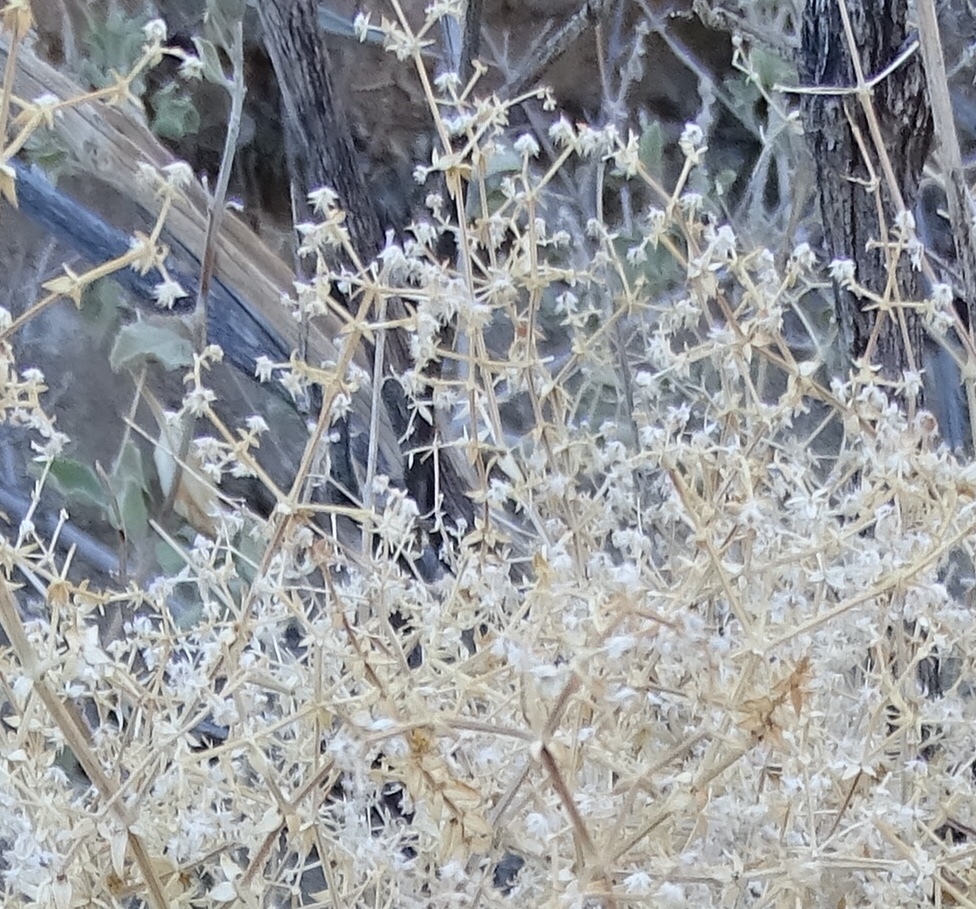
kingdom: Plantae
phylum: Tracheophyta
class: Magnoliopsida
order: Gentianales
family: Rubiaceae
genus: Galium
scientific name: Galium stellatum
